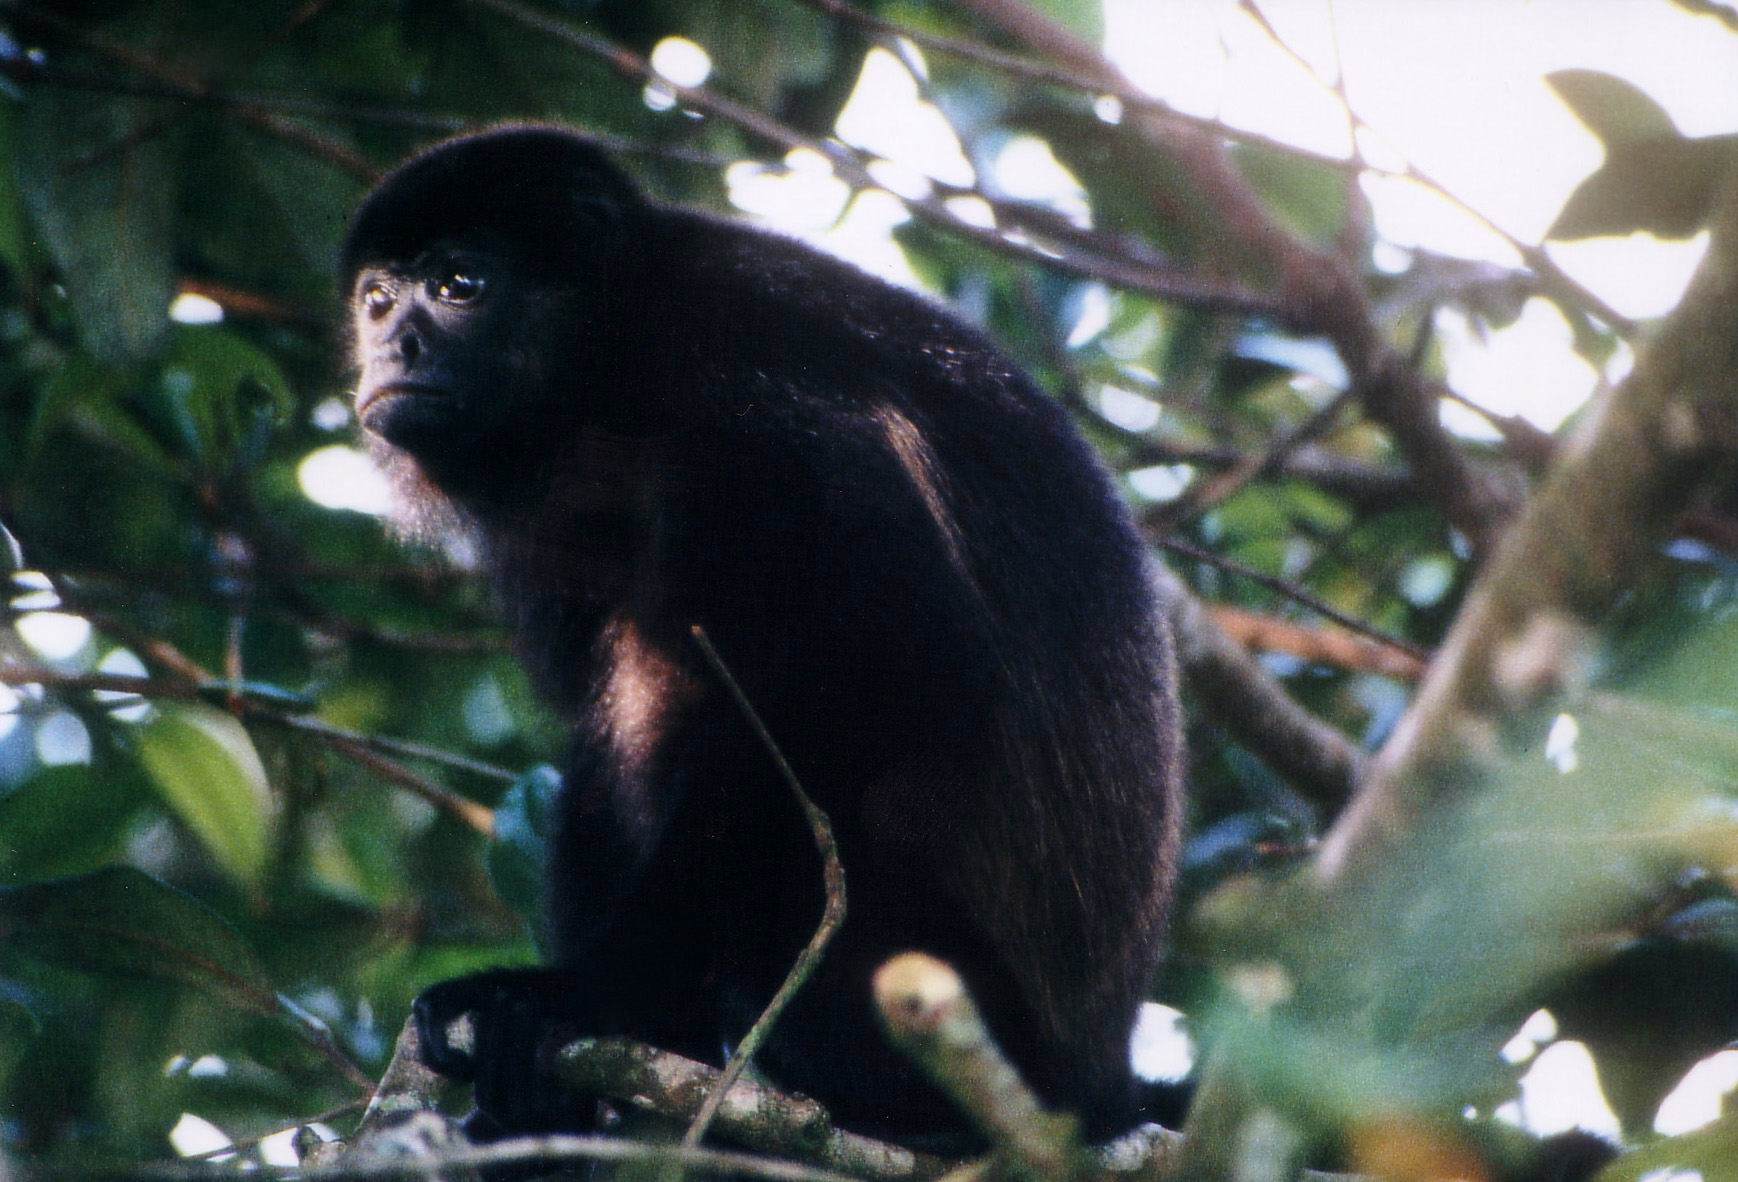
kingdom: Animalia
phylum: Chordata
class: Mammalia
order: Primates
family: Atelidae
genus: Alouatta
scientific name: Alouatta palliata
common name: Mantled howler
